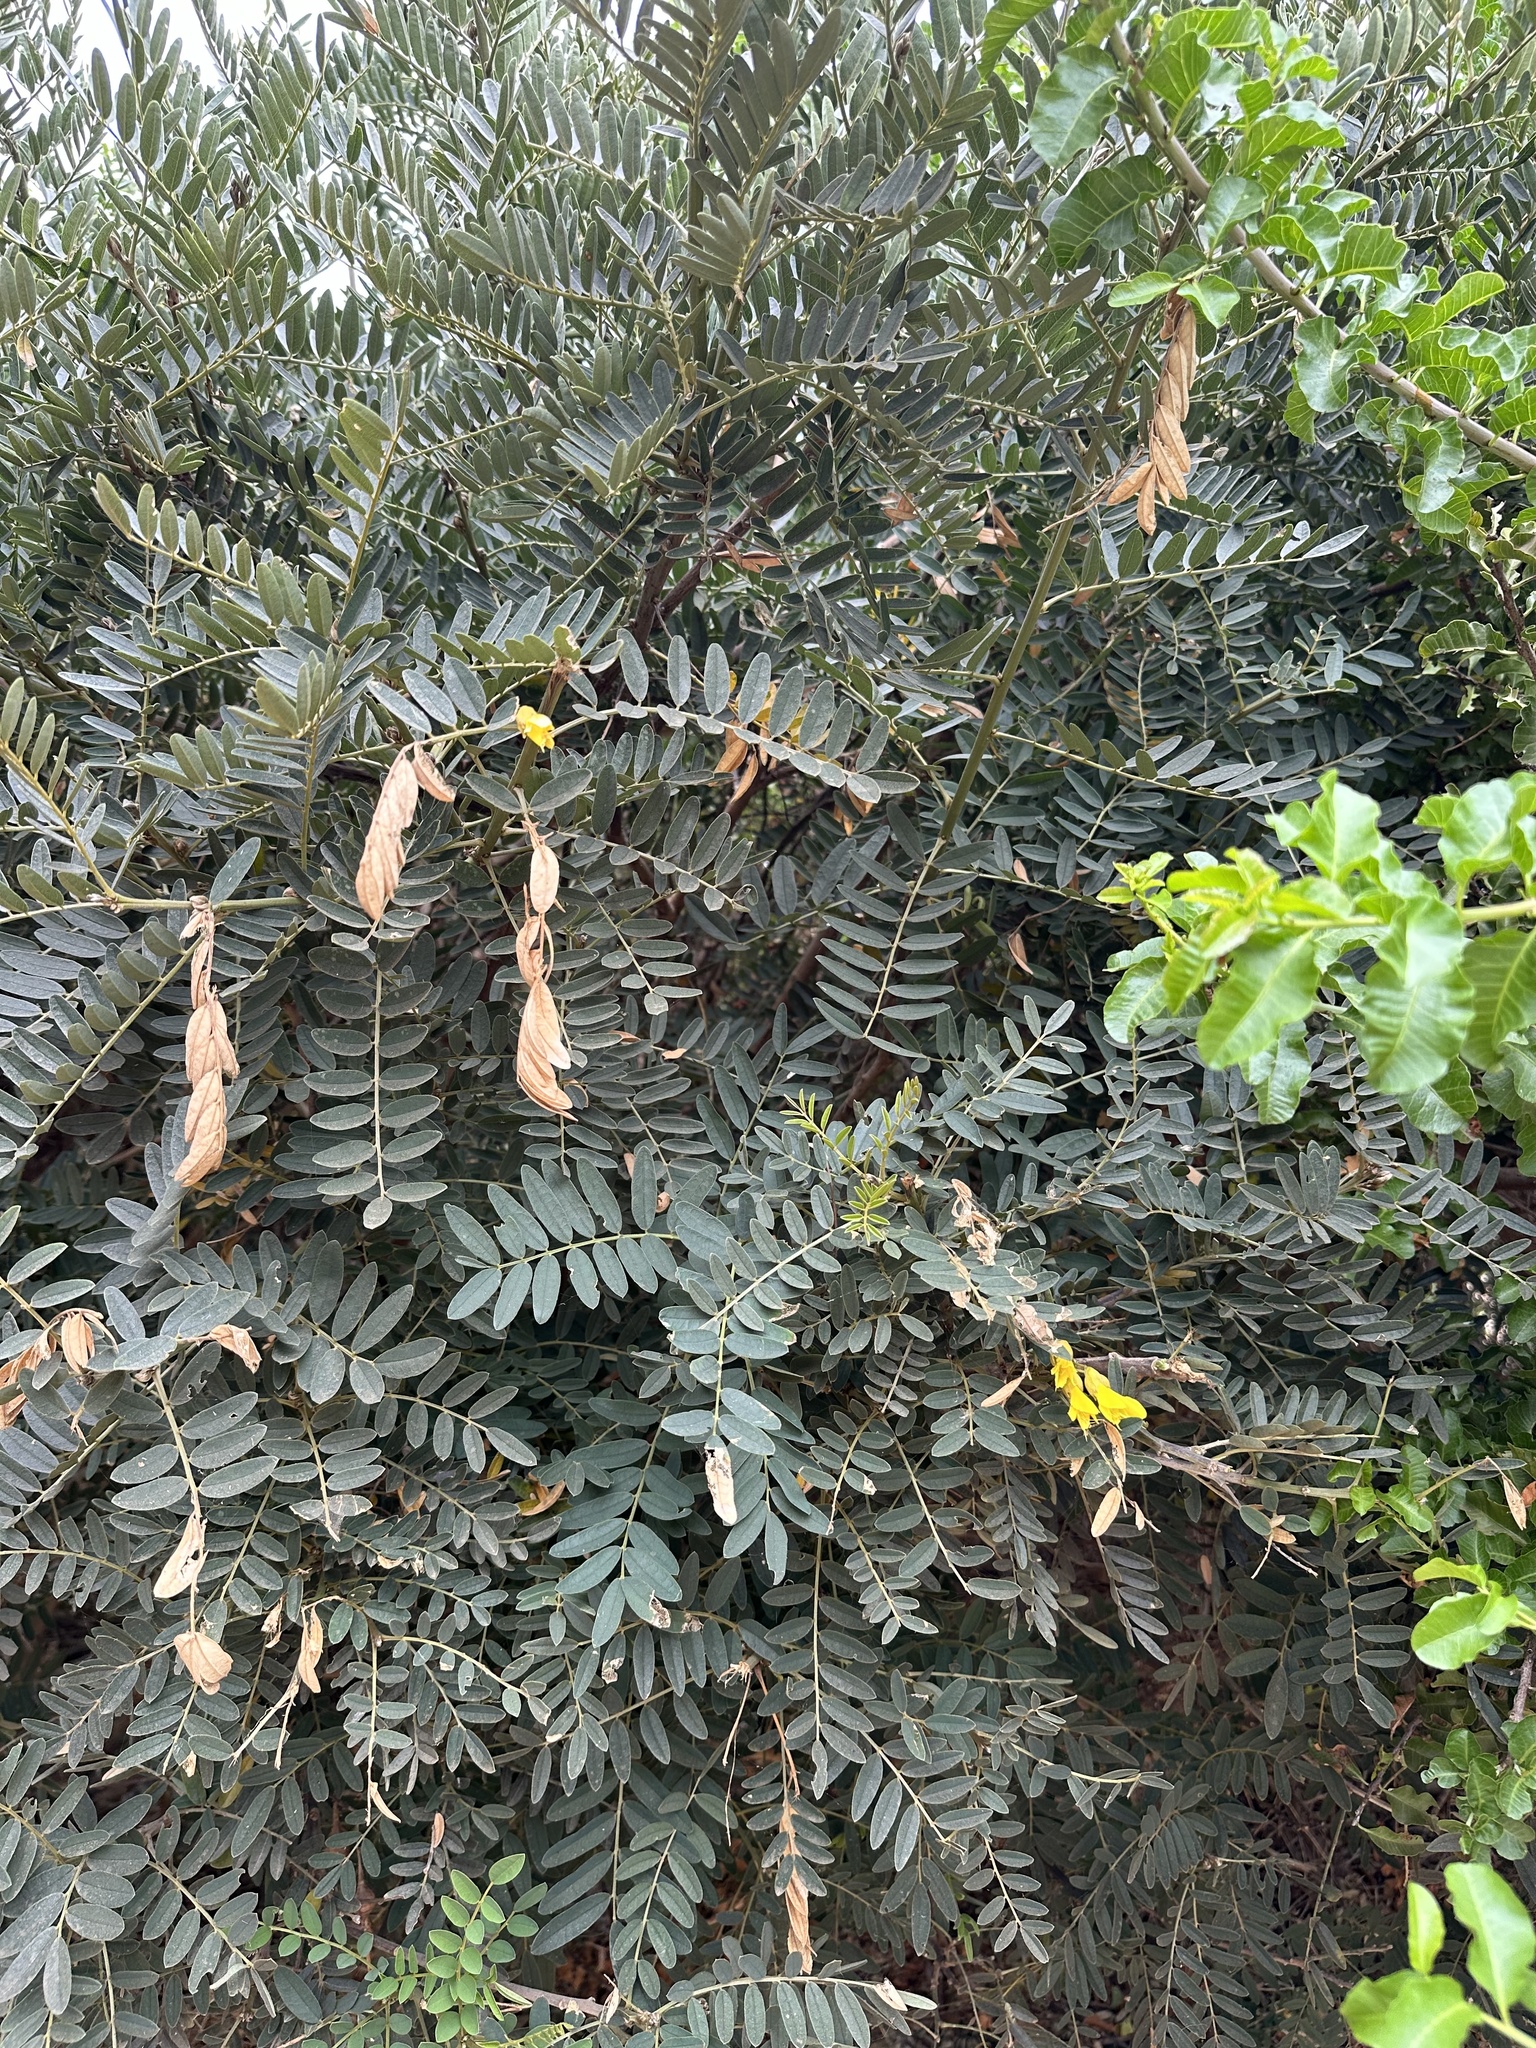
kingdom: Plantae
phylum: Tracheophyta
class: Magnoliopsida
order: Fabales
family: Fabaceae
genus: Sophora
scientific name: Sophora macrocarpa
